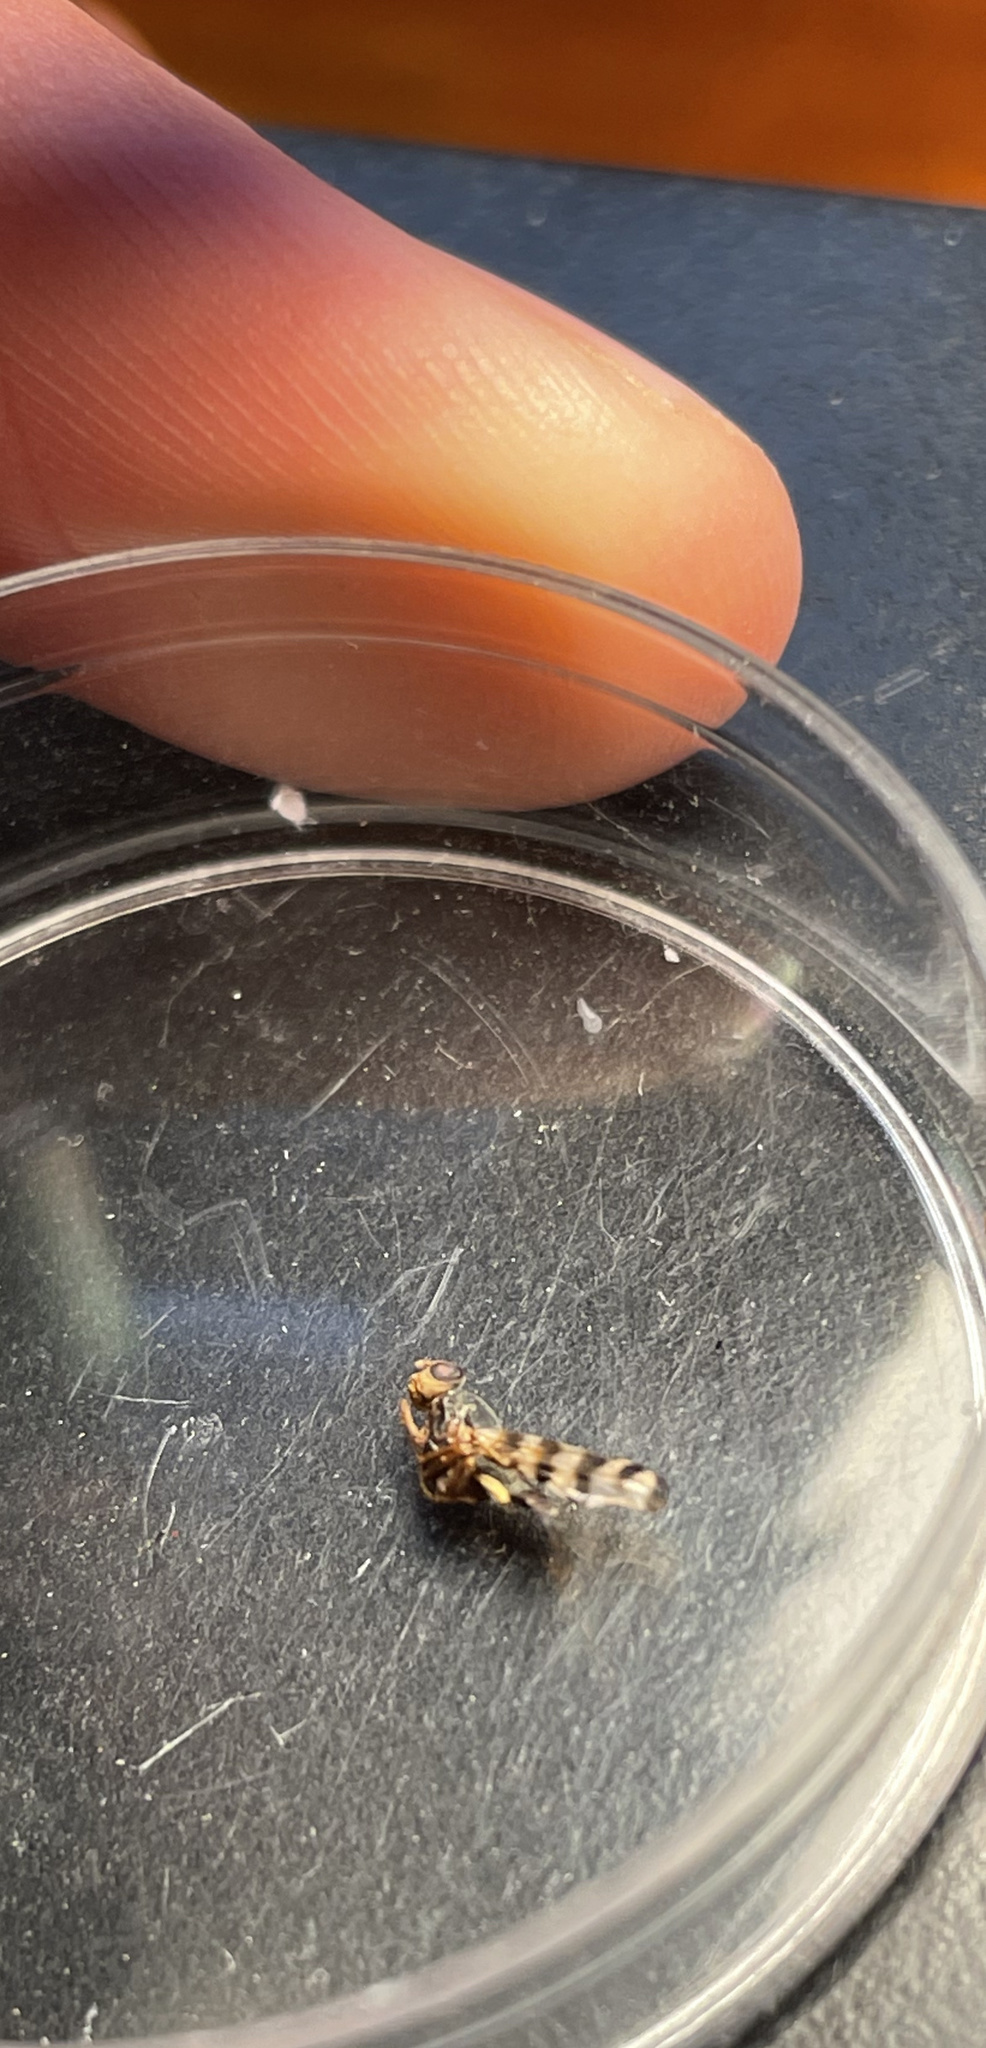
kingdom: Animalia
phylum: Arthropoda
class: Insecta
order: Diptera
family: Ulidiidae
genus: Ceroxys
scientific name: Ceroxys latiusculus
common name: Picture-winged fly
